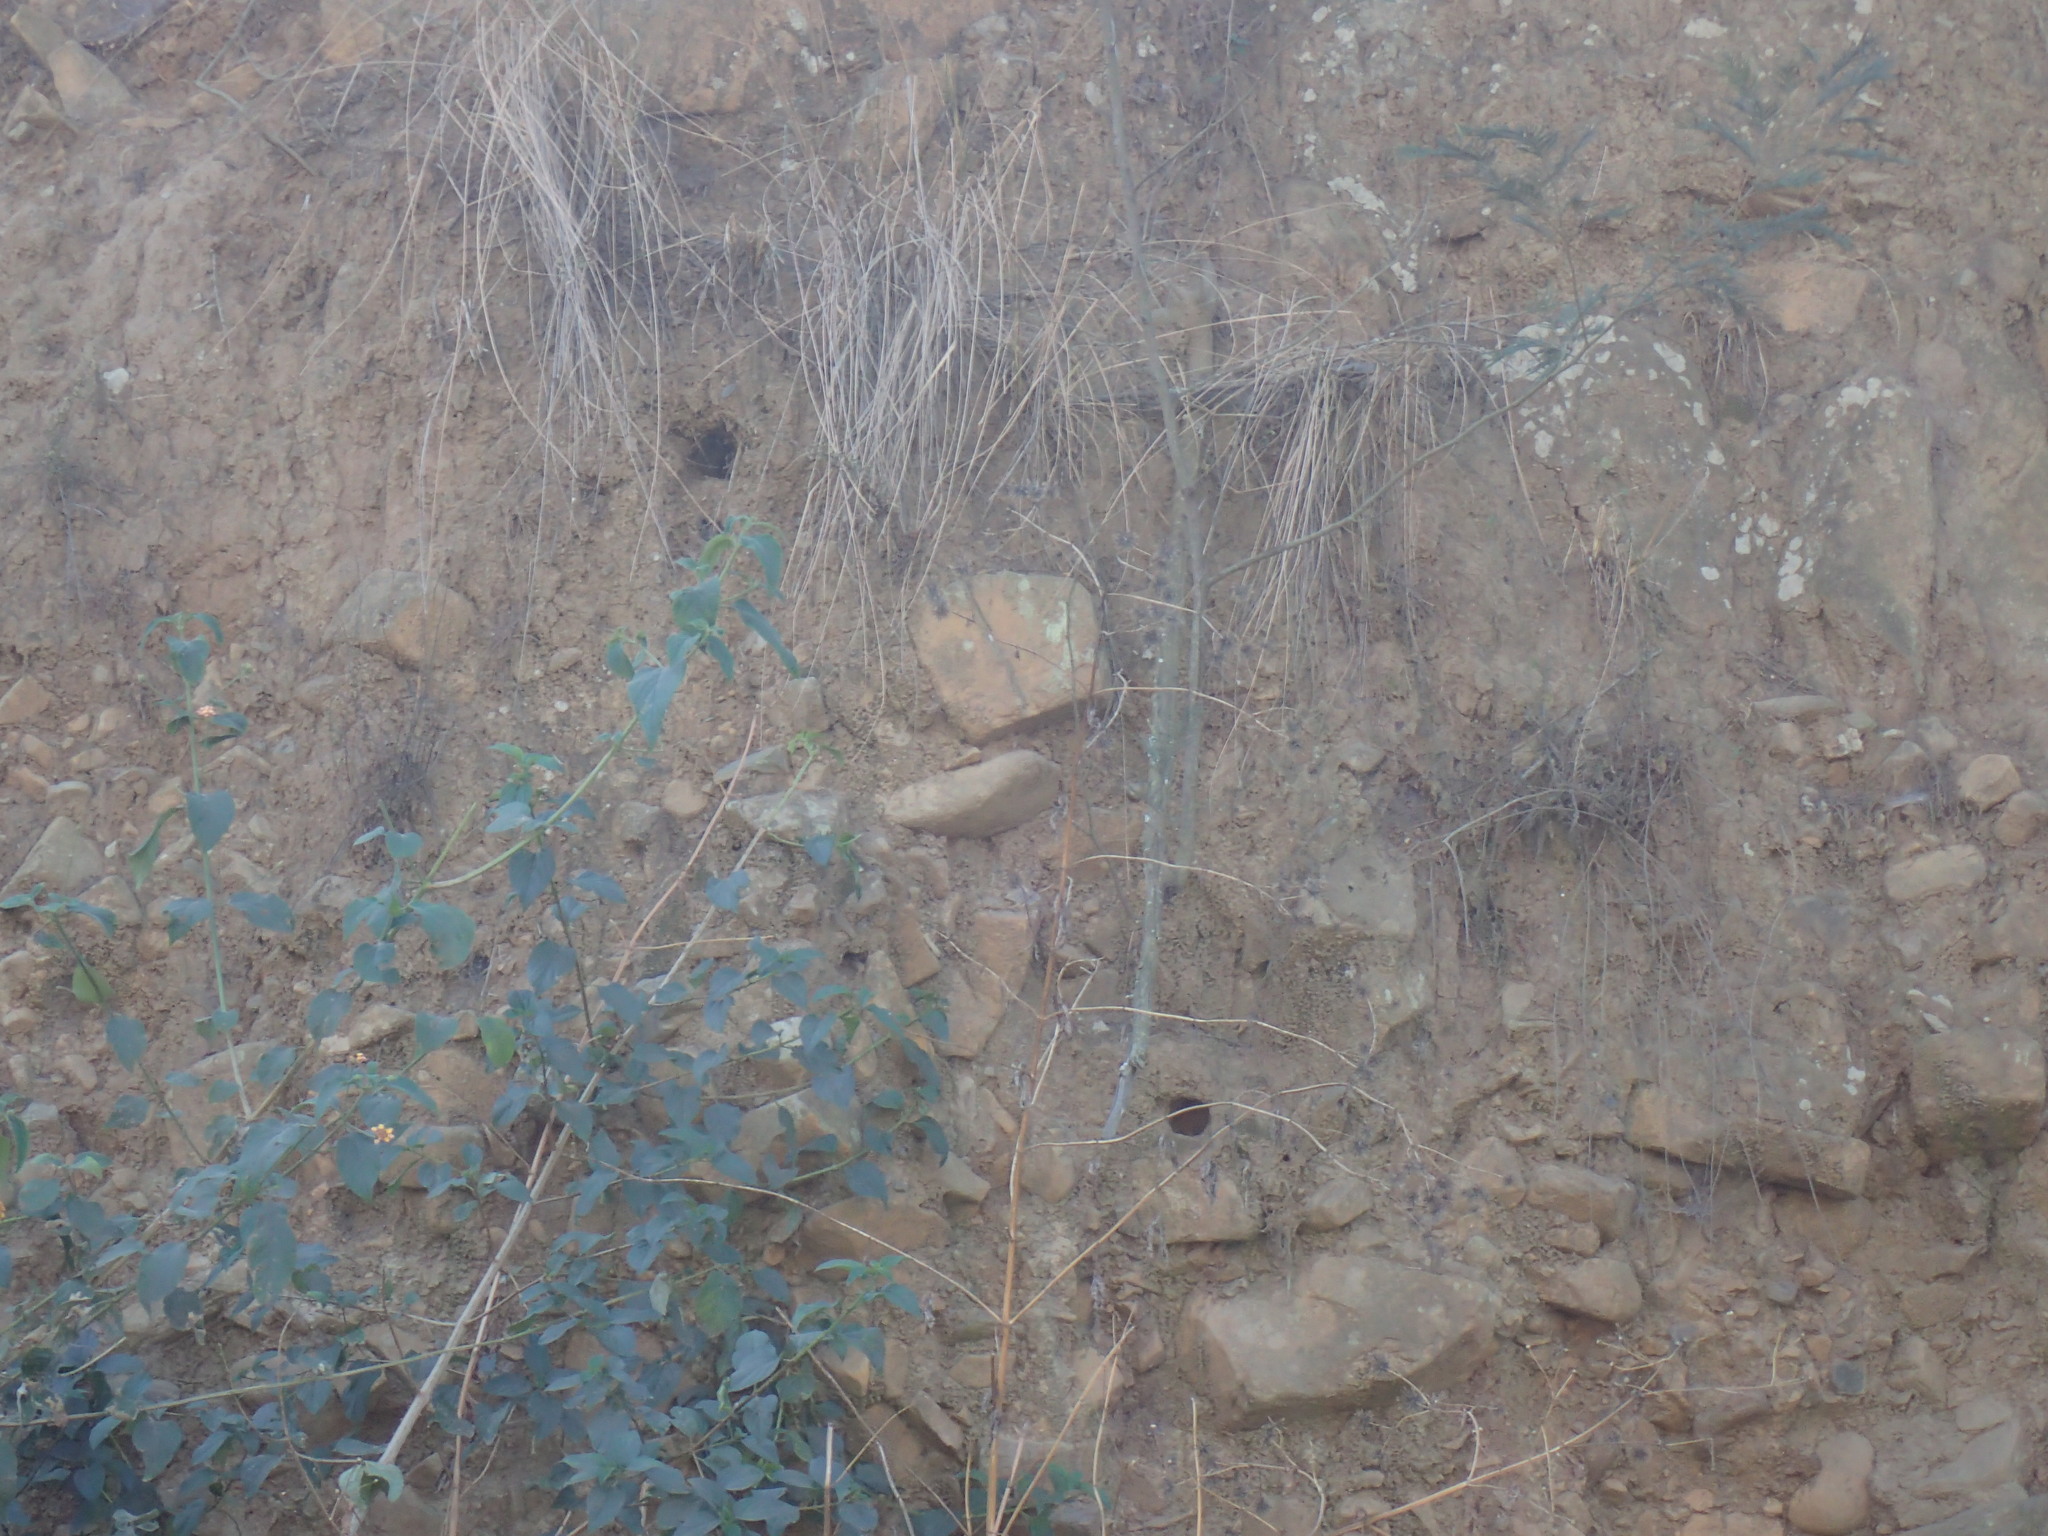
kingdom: Animalia
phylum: Chordata
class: Aves
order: Coraciiformes
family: Alcedinidae
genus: Alcedo
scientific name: Alcedo semitorquata
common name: Half-collared kingfisher
